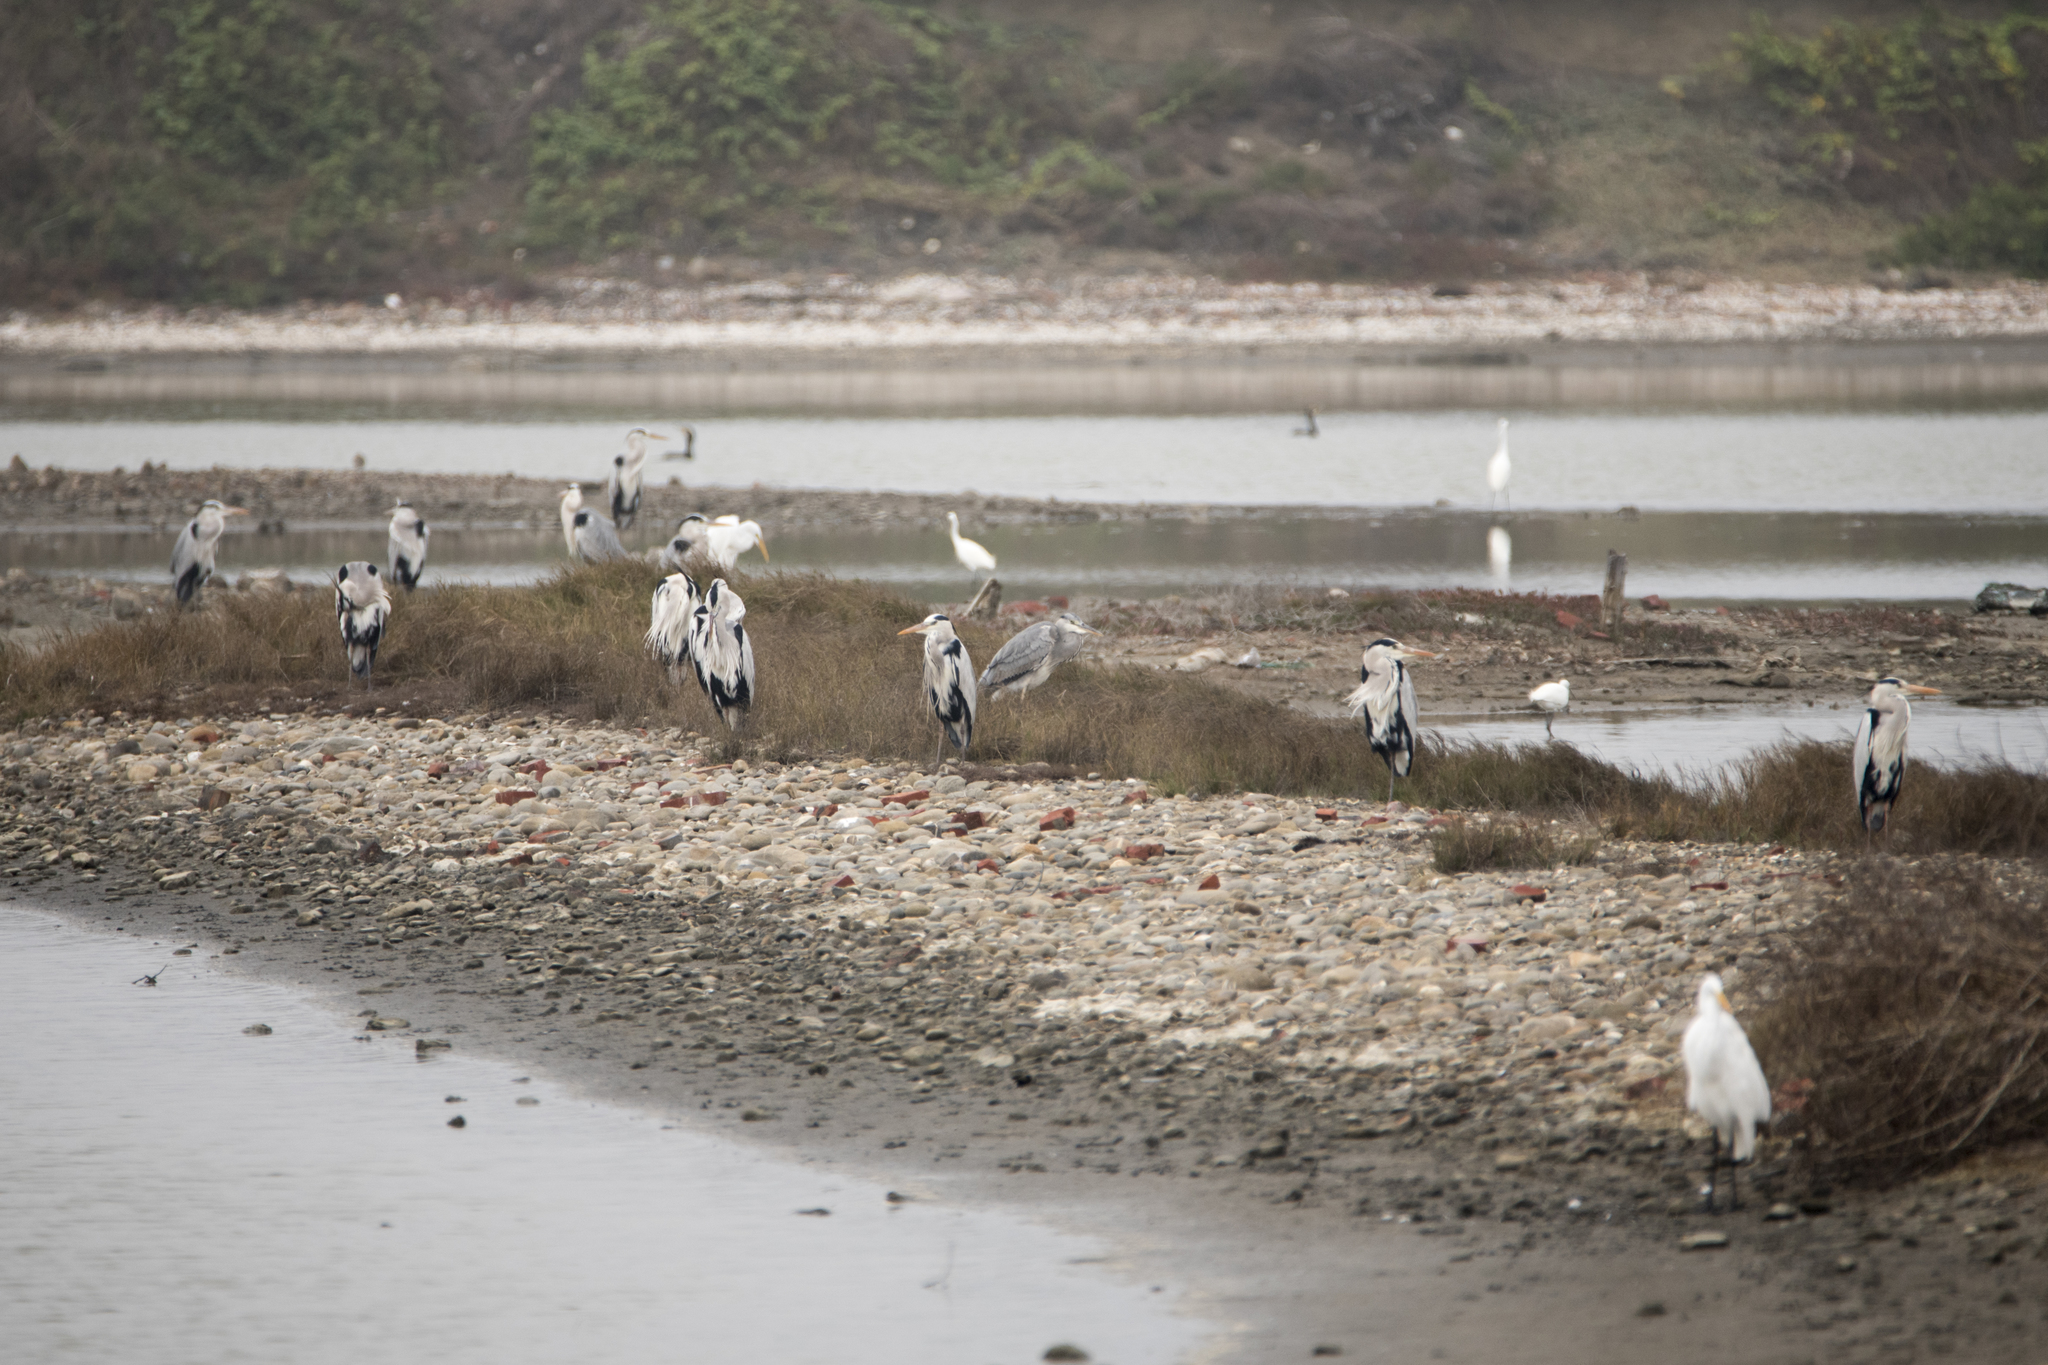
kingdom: Animalia
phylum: Chordata
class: Aves
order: Pelecaniformes
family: Ardeidae
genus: Ardea
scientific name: Ardea cinerea
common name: Grey heron
